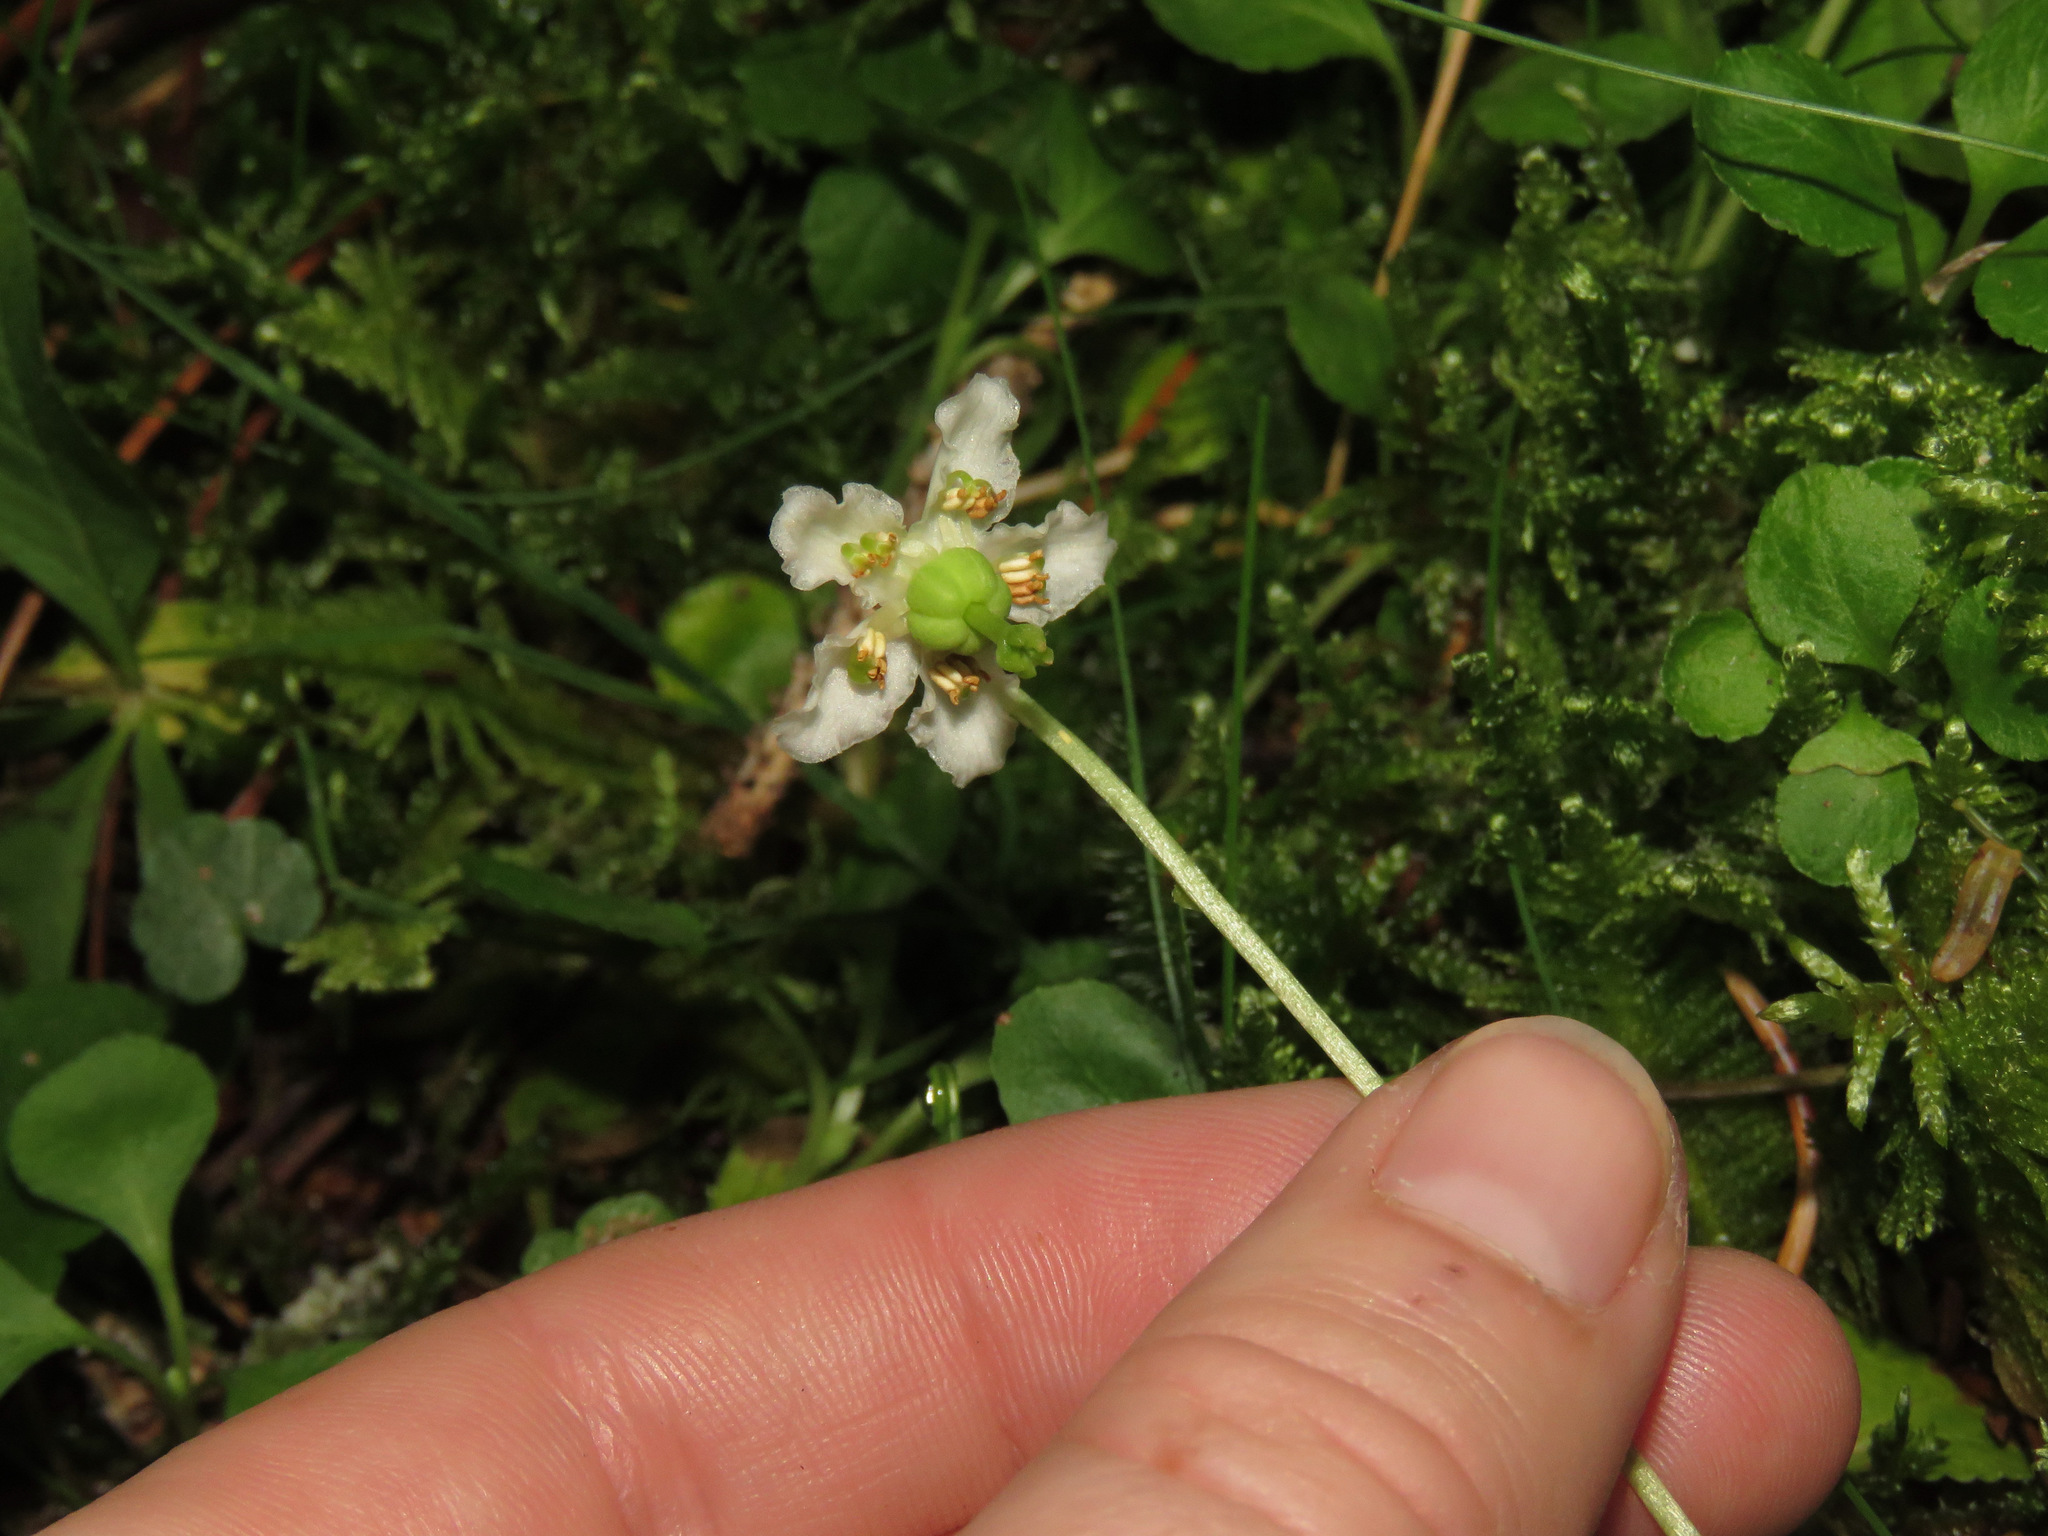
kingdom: Plantae
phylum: Tracheophyta
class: Magnoliopsida
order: Ericales
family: Ericaceae
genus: Moneses
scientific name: Moneses uniflora
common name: One-flowered wintergreen
